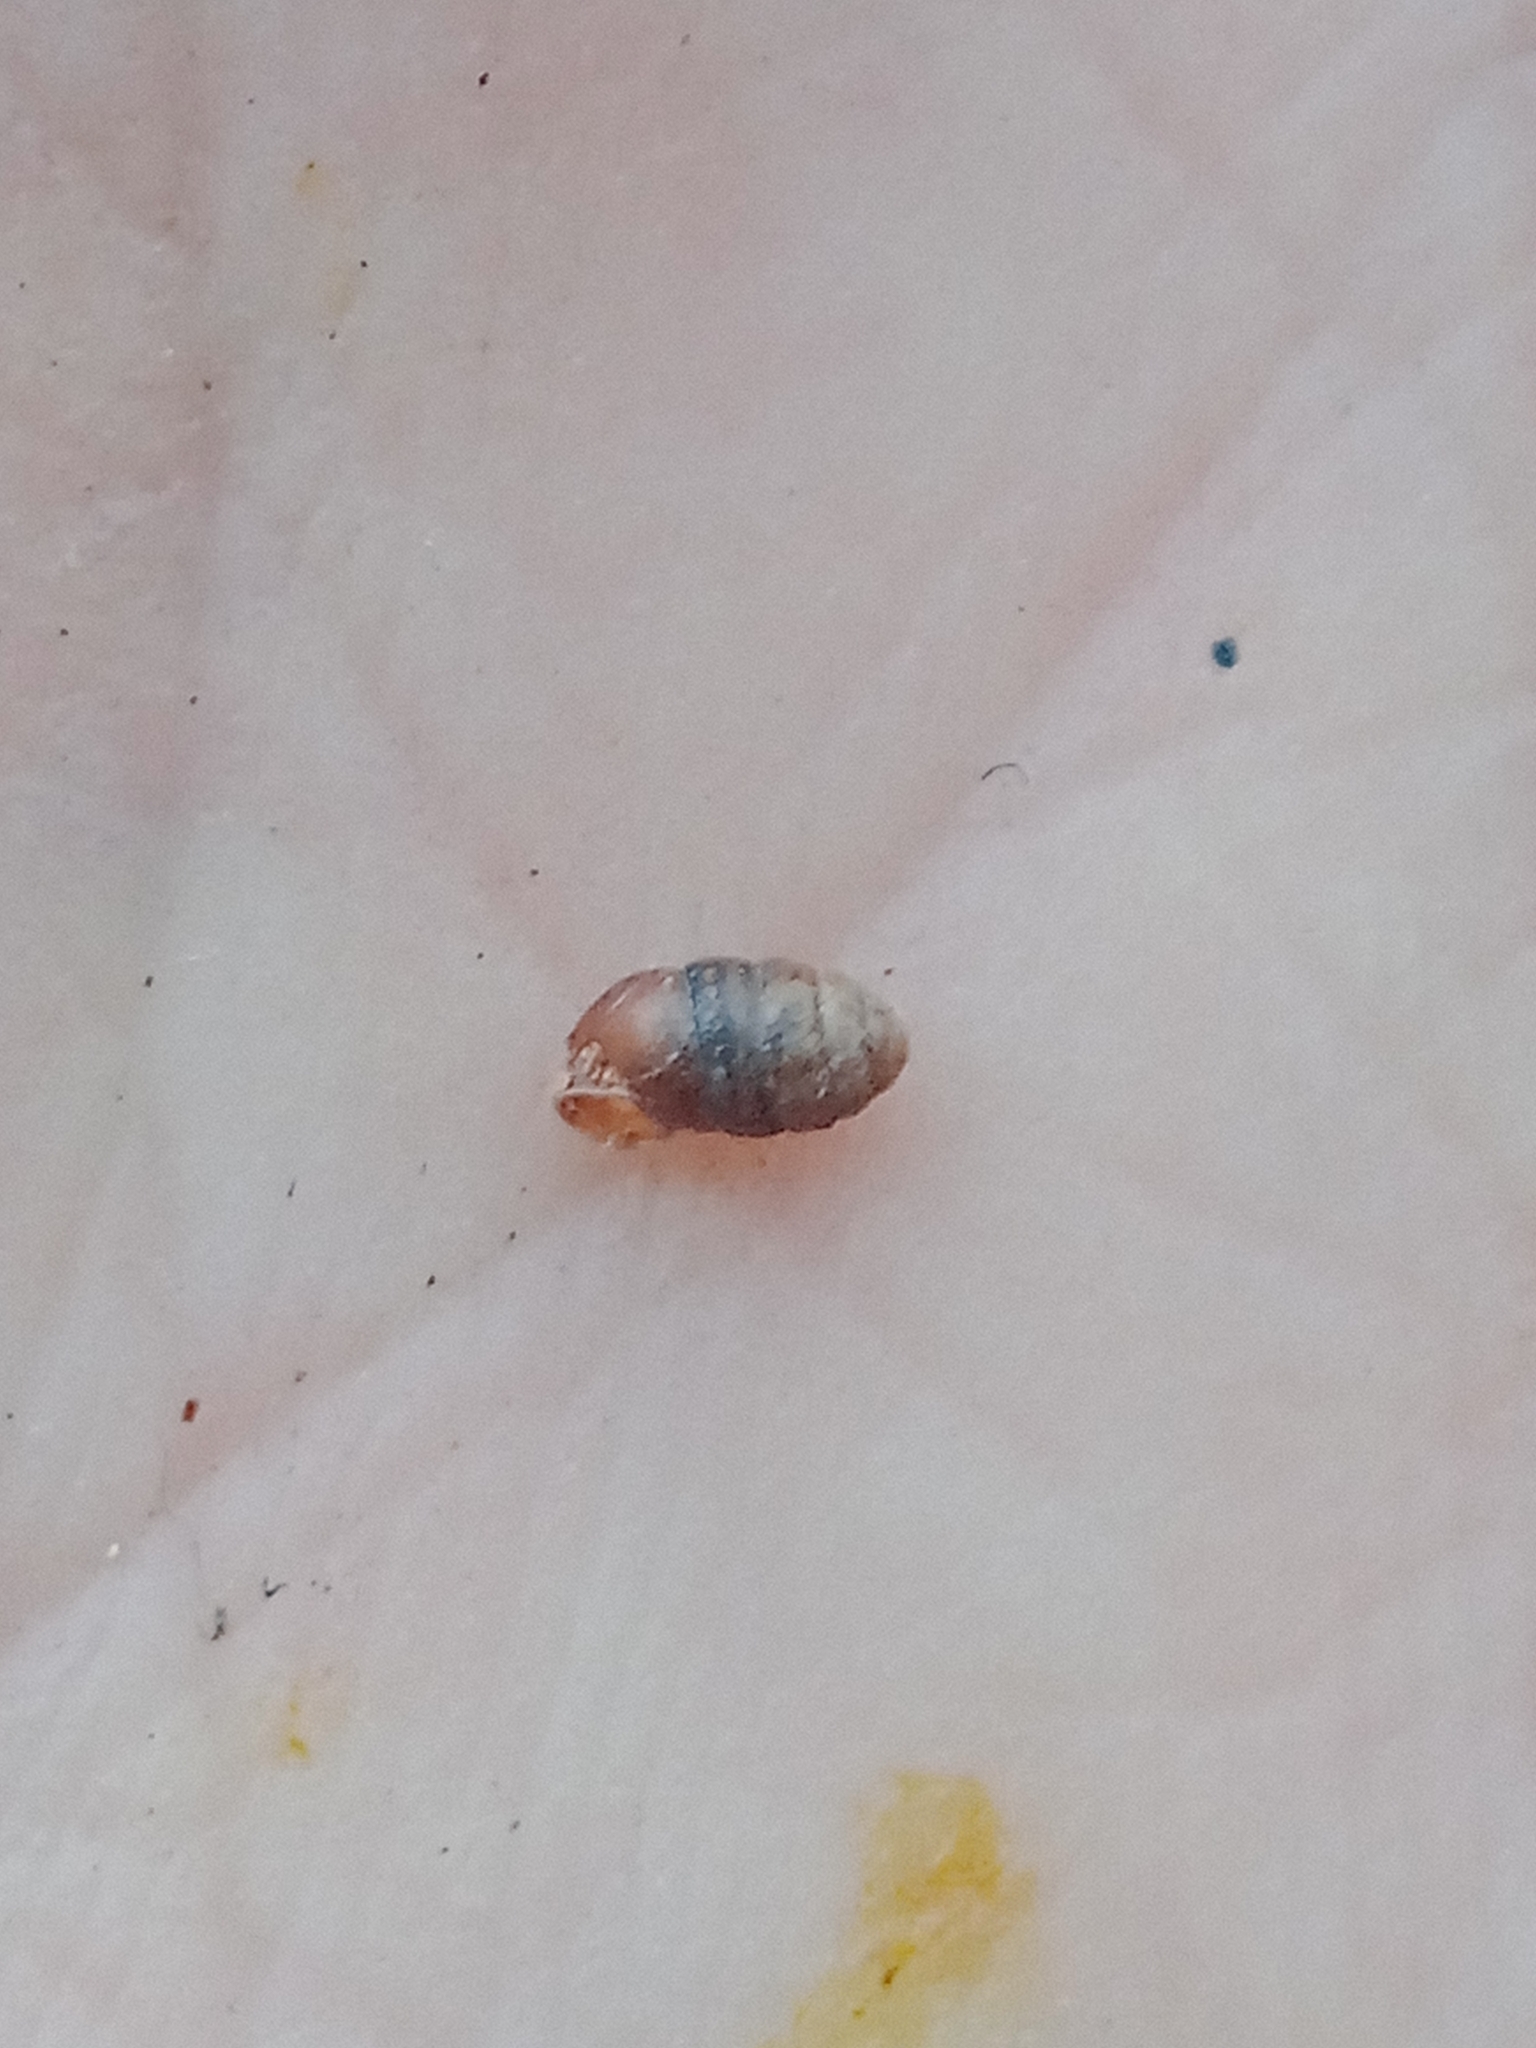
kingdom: Animalia
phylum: Mollusca
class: Gastropoda
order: Stylommatophora
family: Pupillidae
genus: Pupilla
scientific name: Pupilla muscorum
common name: Moss chrysalis snail
